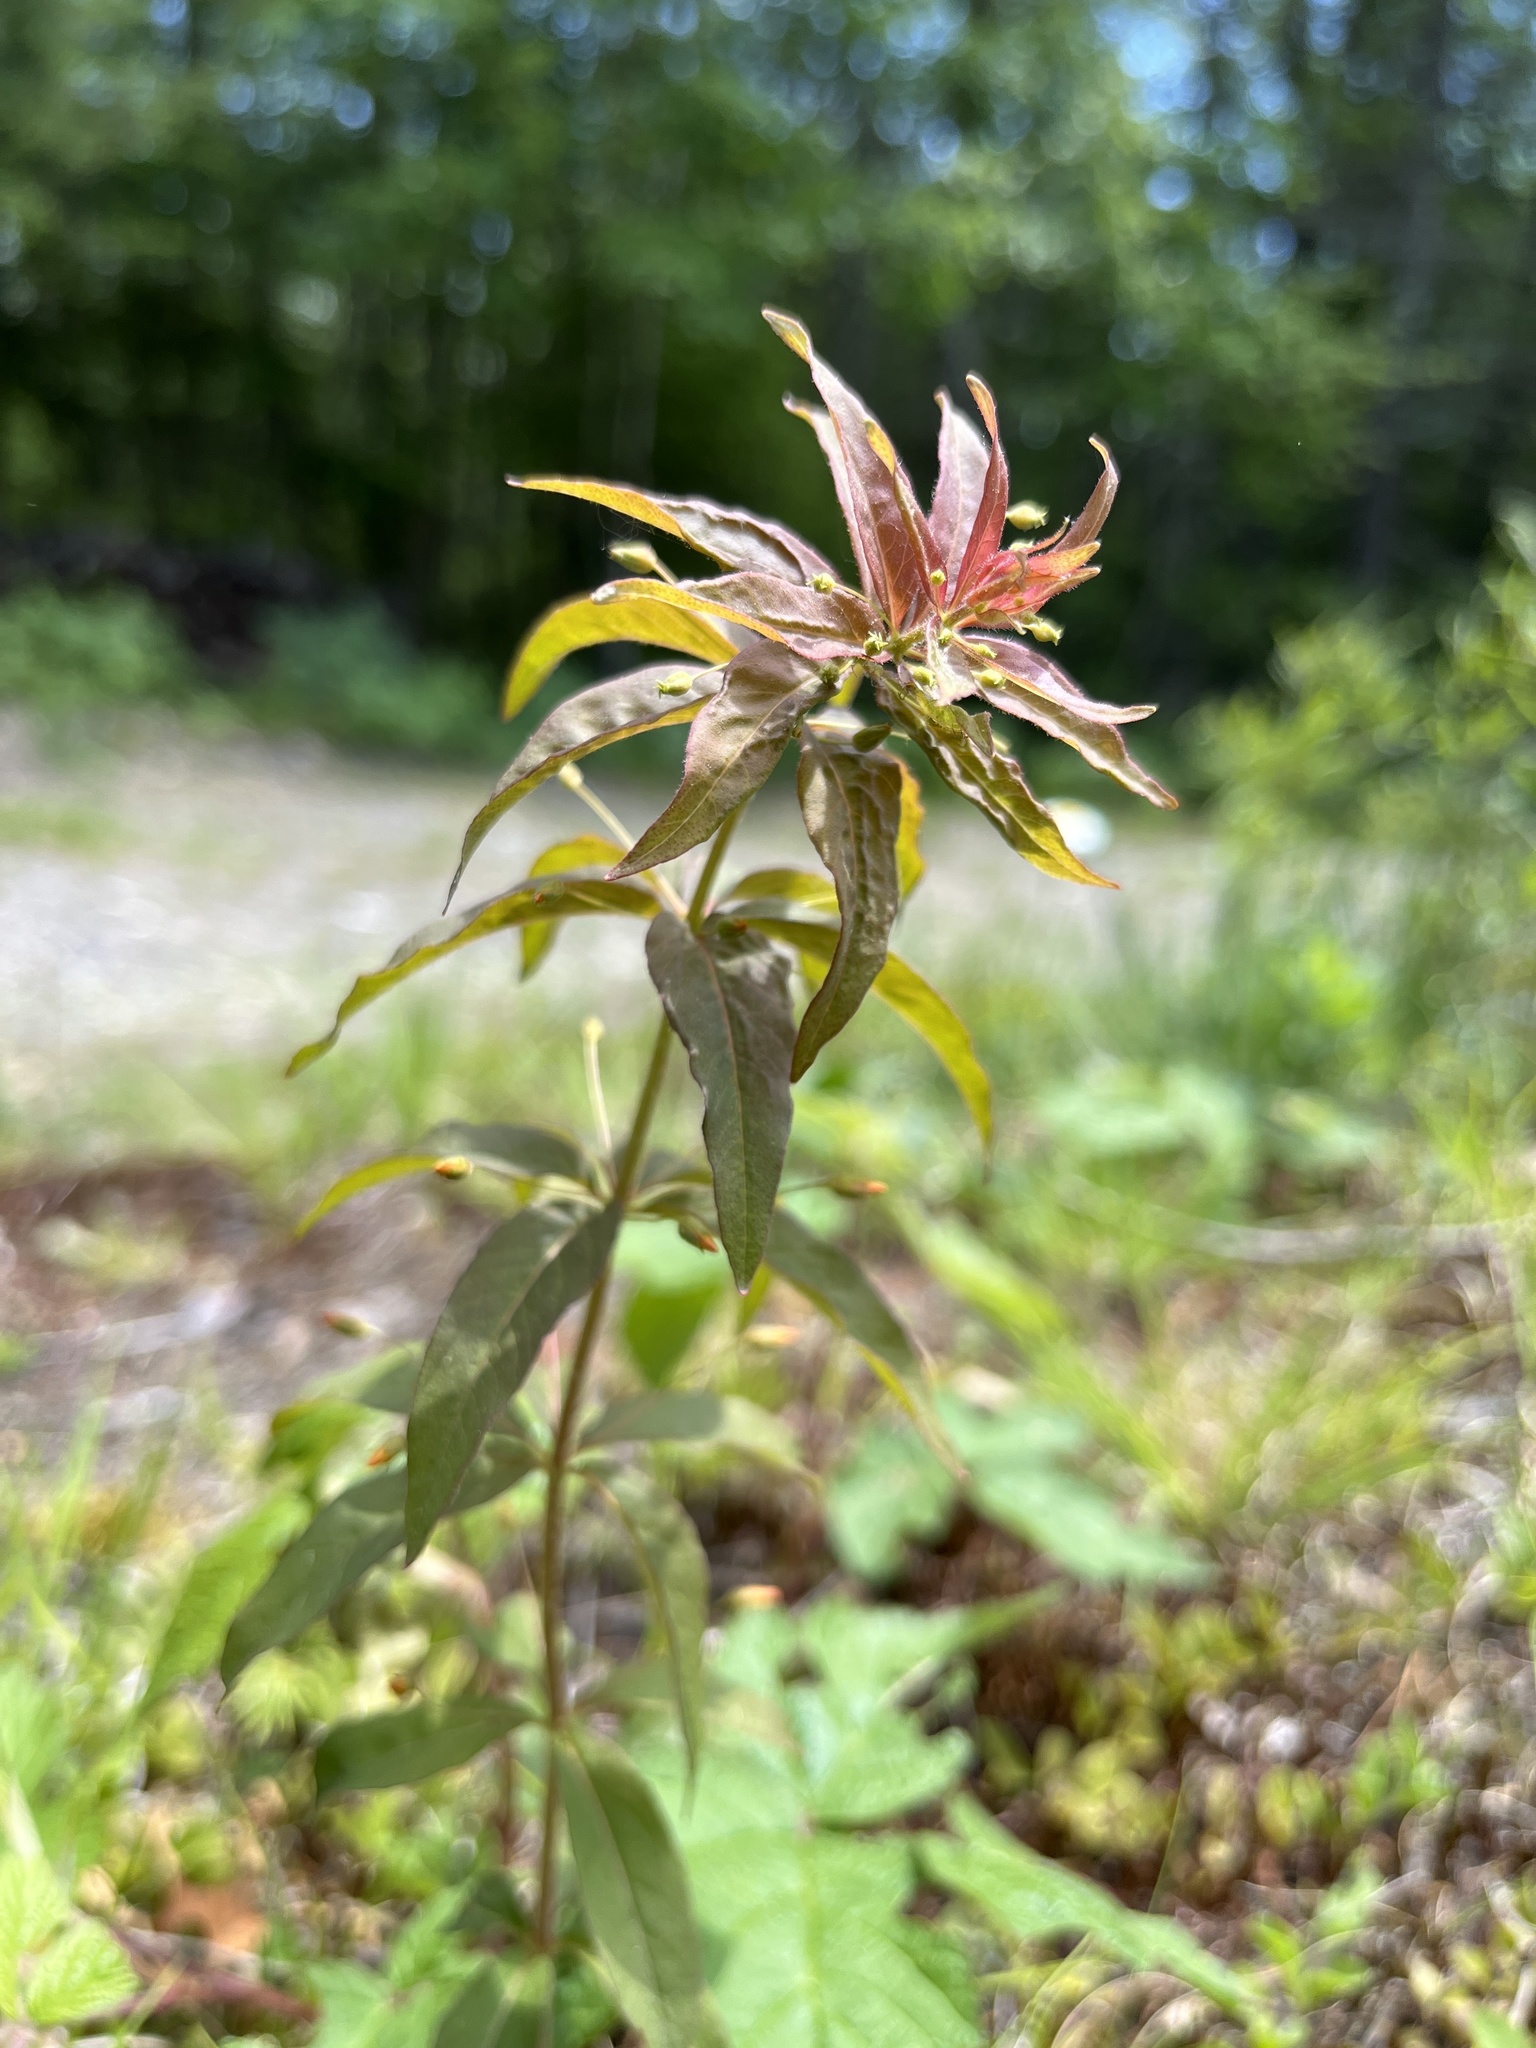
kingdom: Plantae
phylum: Tracheophyta
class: Magnoliopsida
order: Ericales
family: Primulaceae
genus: Lysimachia
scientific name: Lysimachia quadrifolia
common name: Whorled loosestrife
